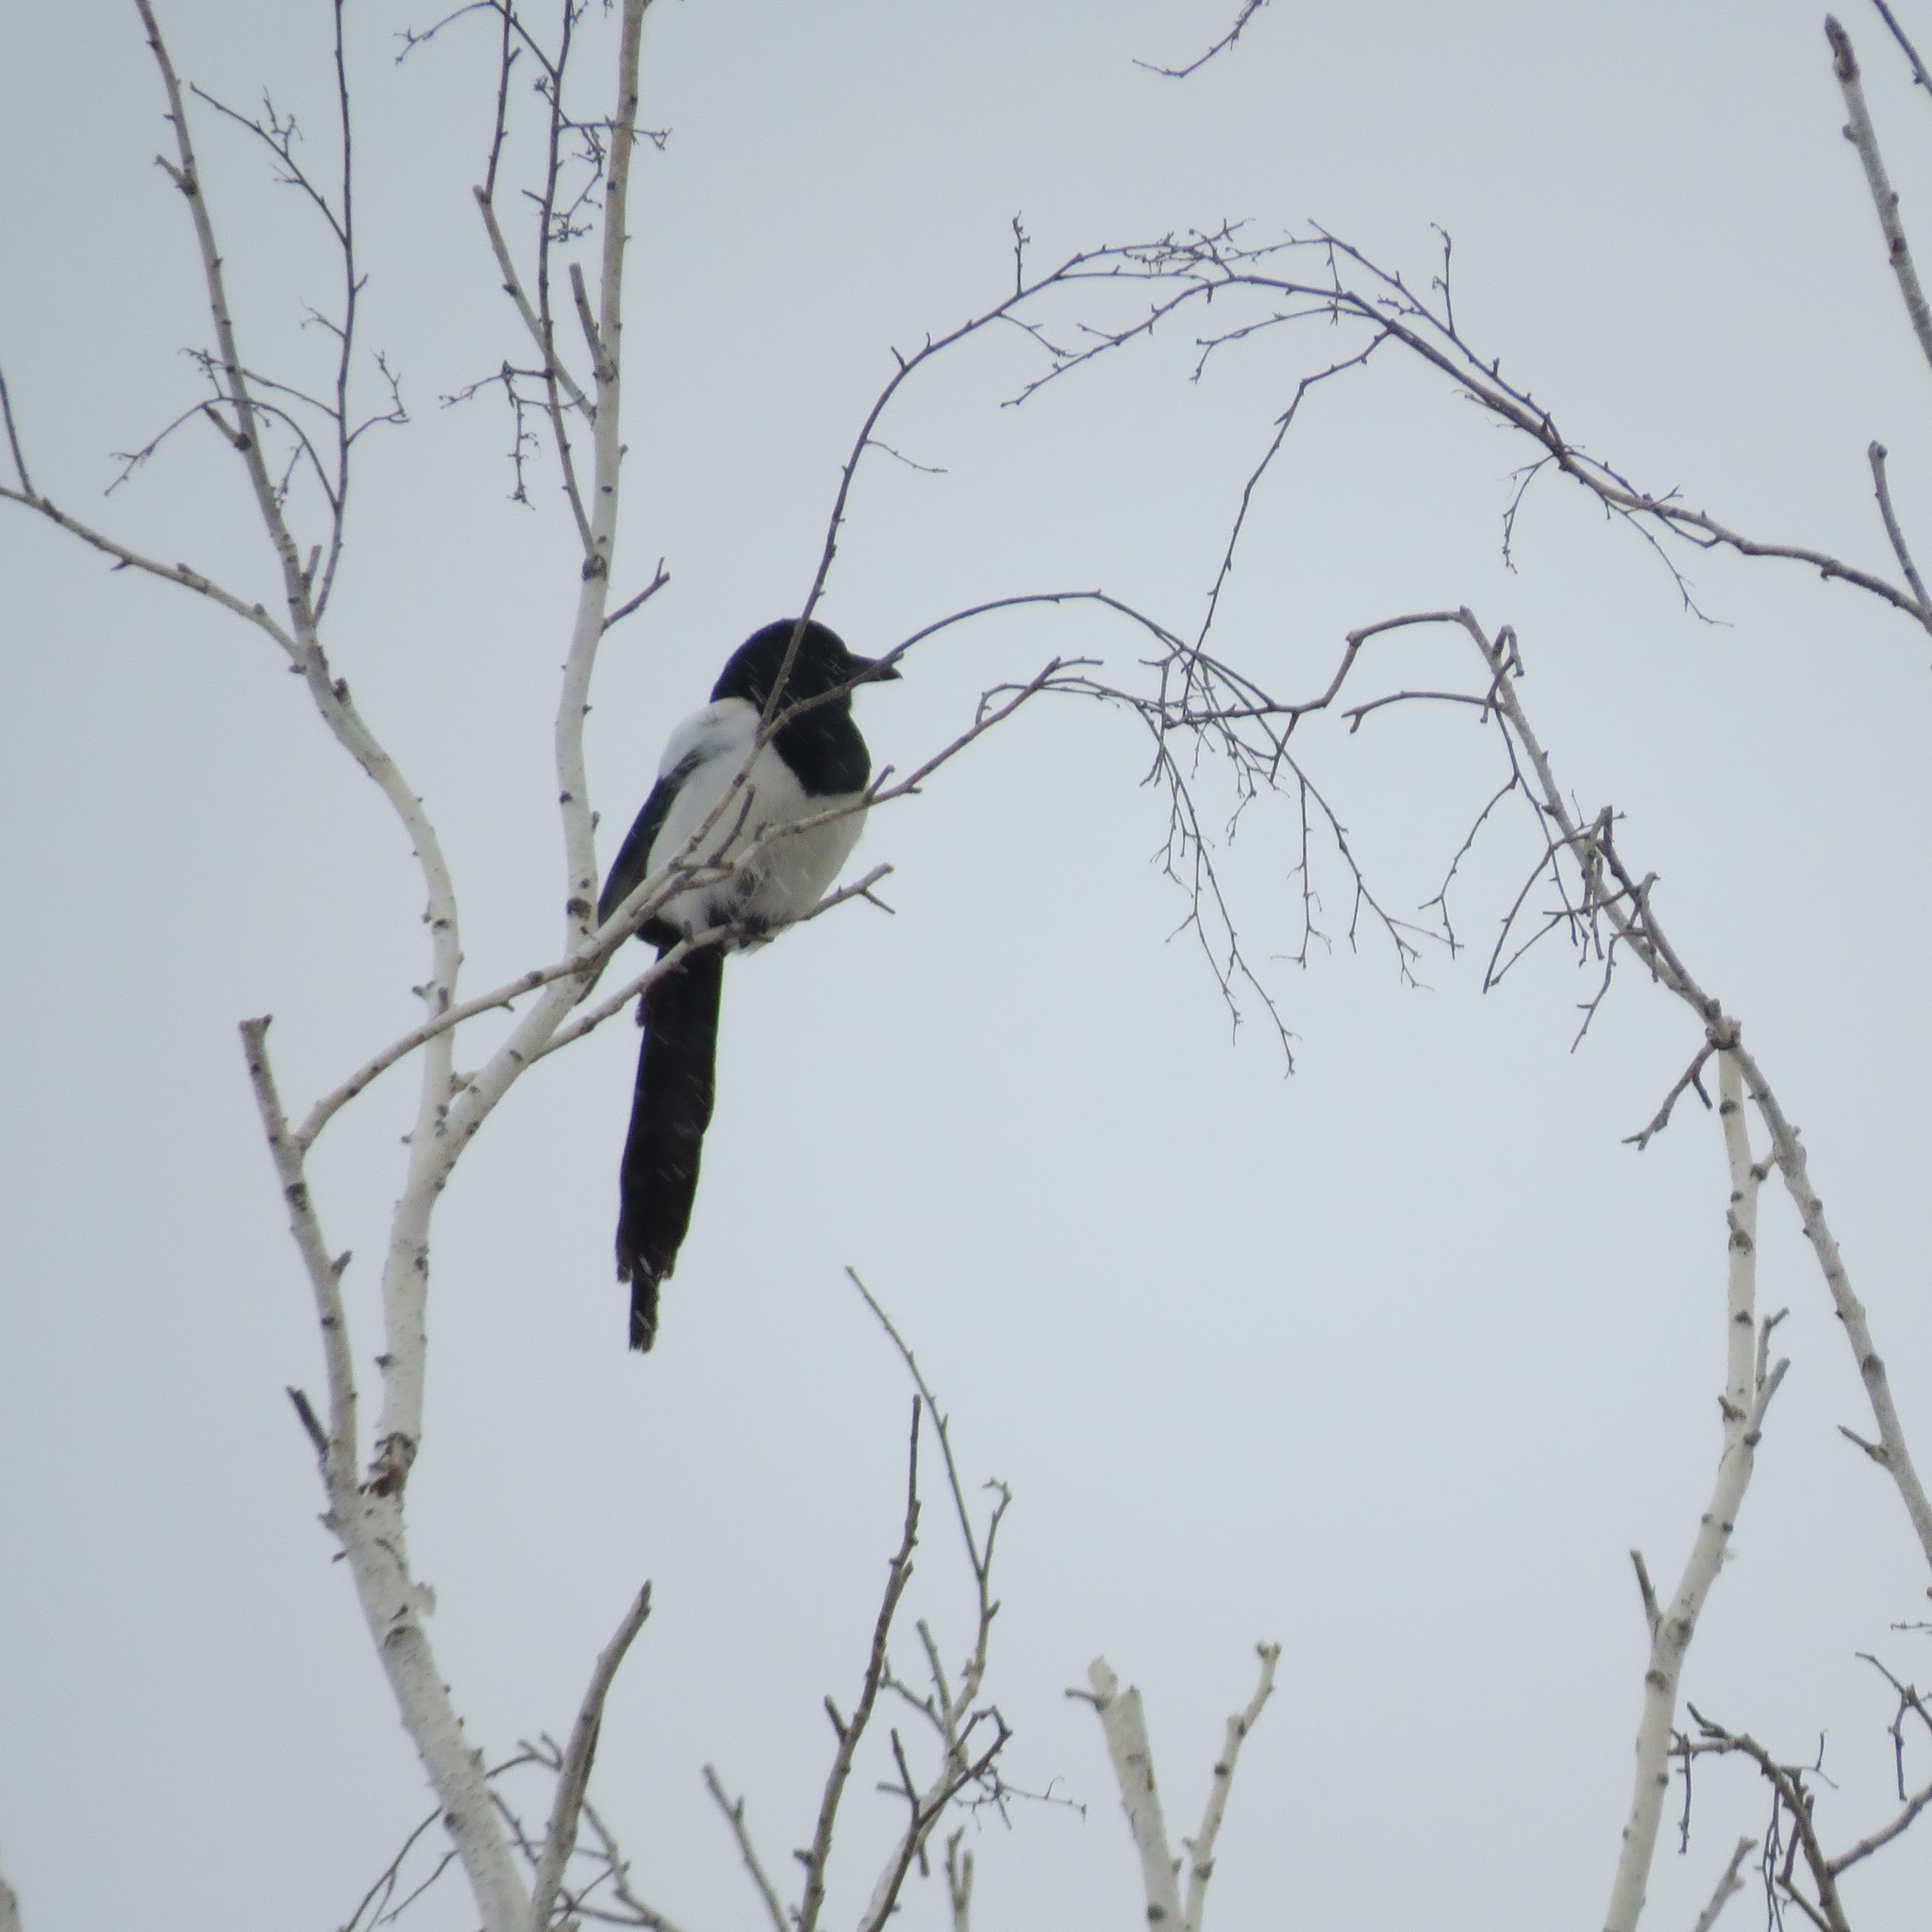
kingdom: Animalia
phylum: Chordata
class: Aves
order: Passeriformes
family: Corvidae
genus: Pica
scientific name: Pica pica
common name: Eurasian magpie
